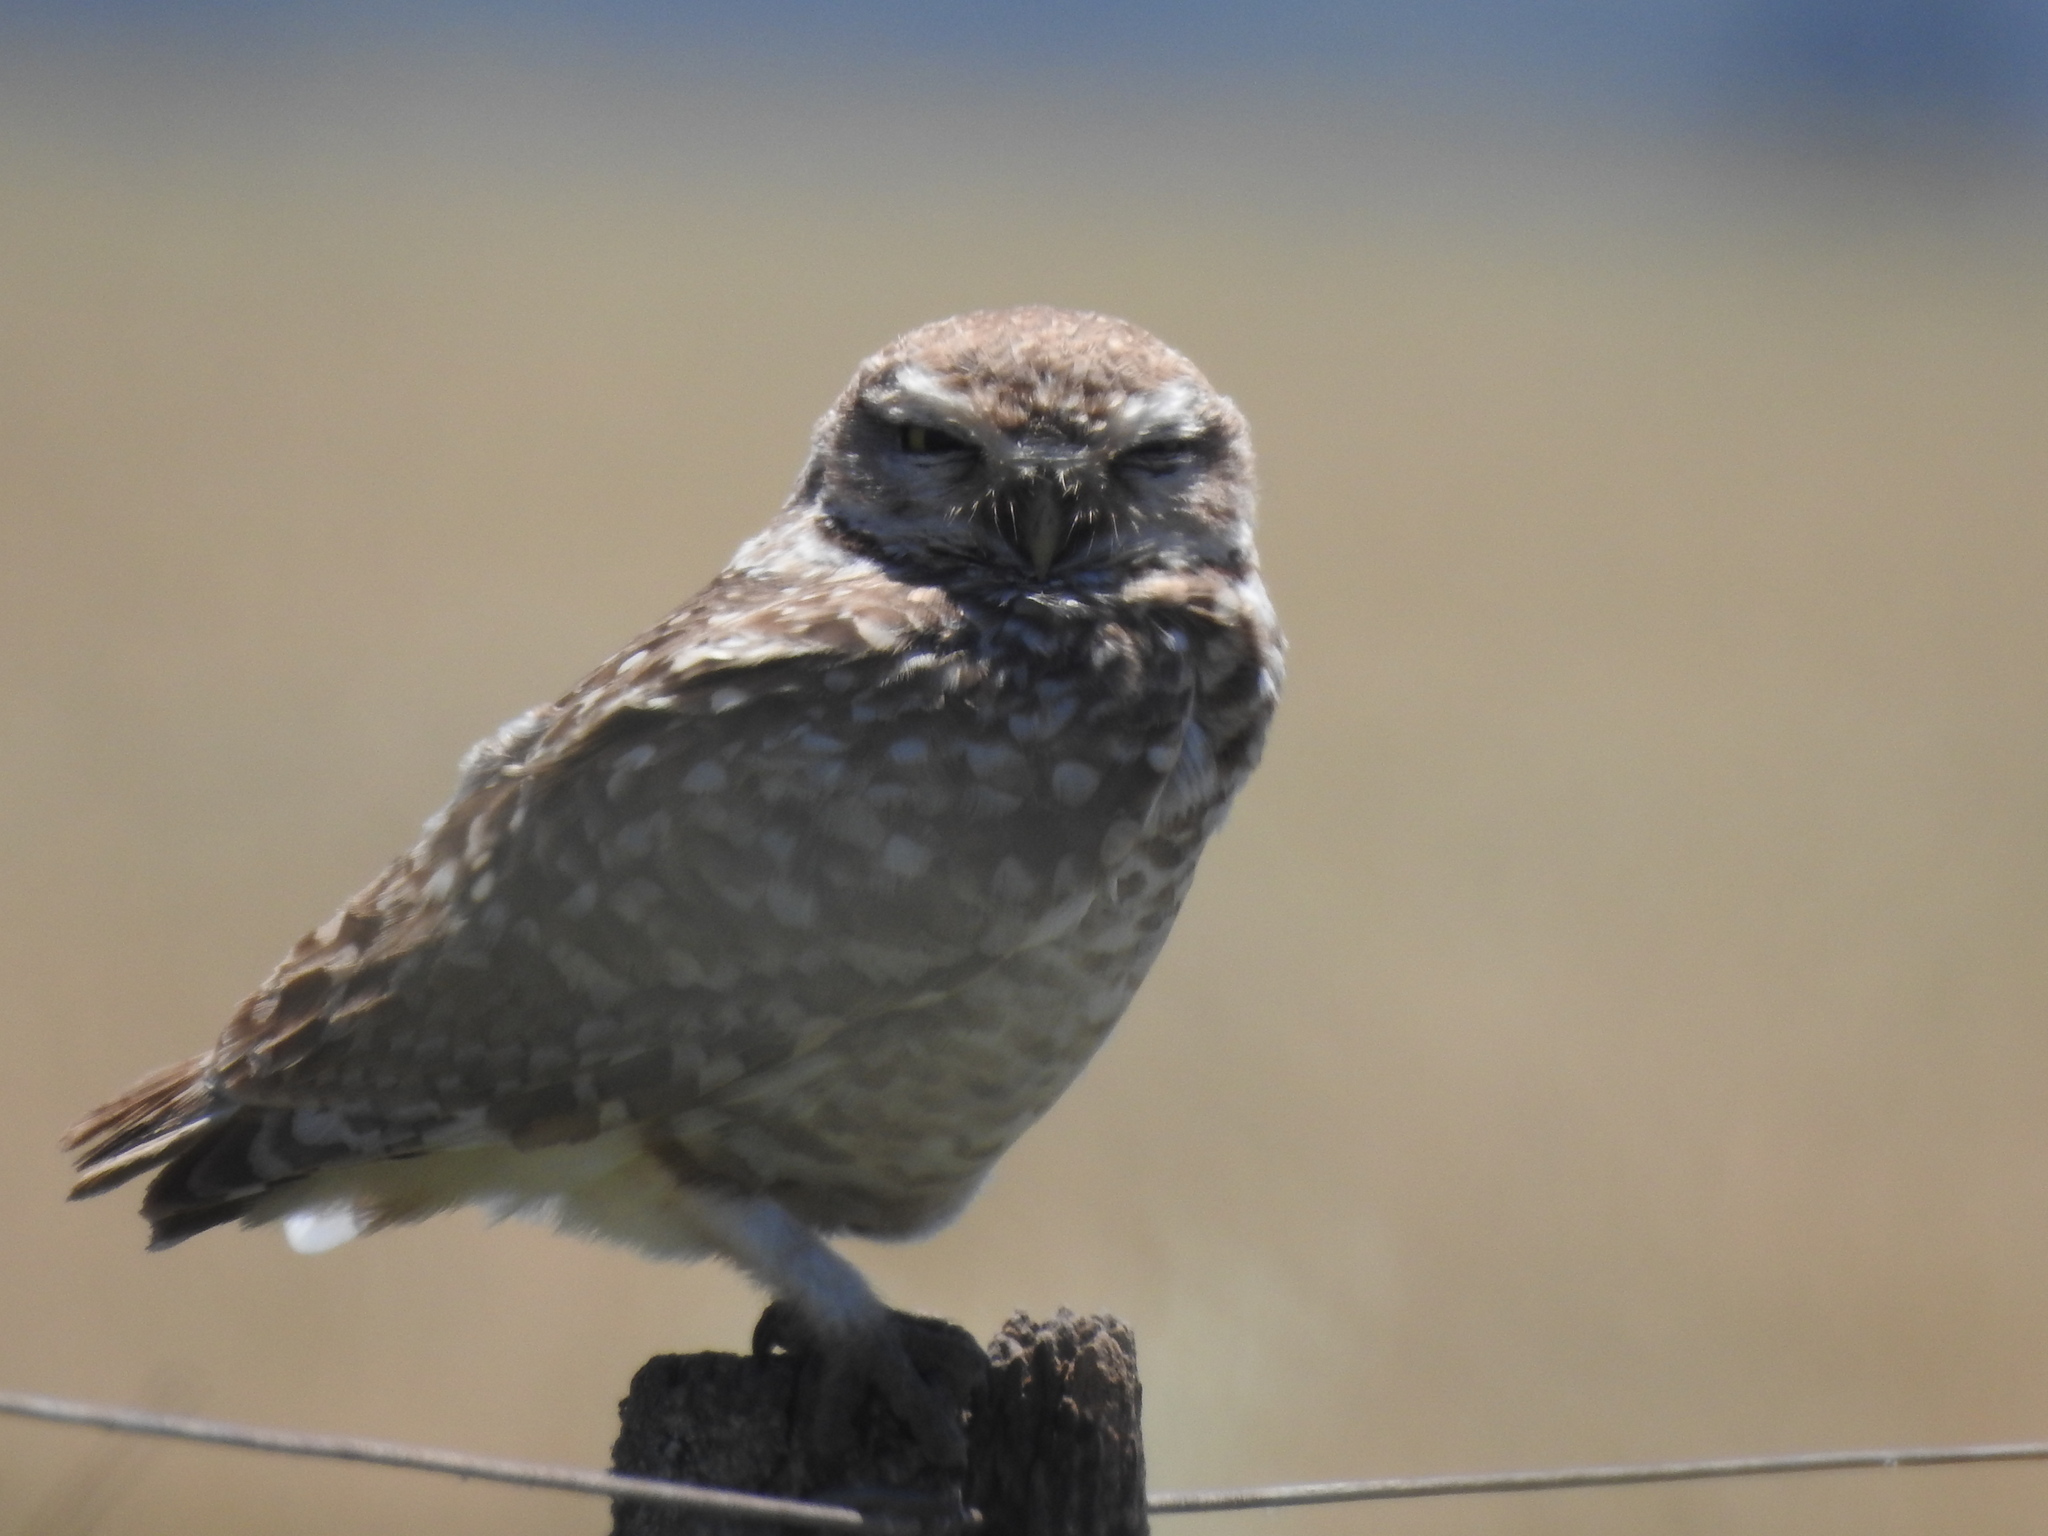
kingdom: Animalia
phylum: Chordata
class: Aves
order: Strigiformes
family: Strigidae
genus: Athene
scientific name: Athene cunicularia
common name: Burrowing owl
